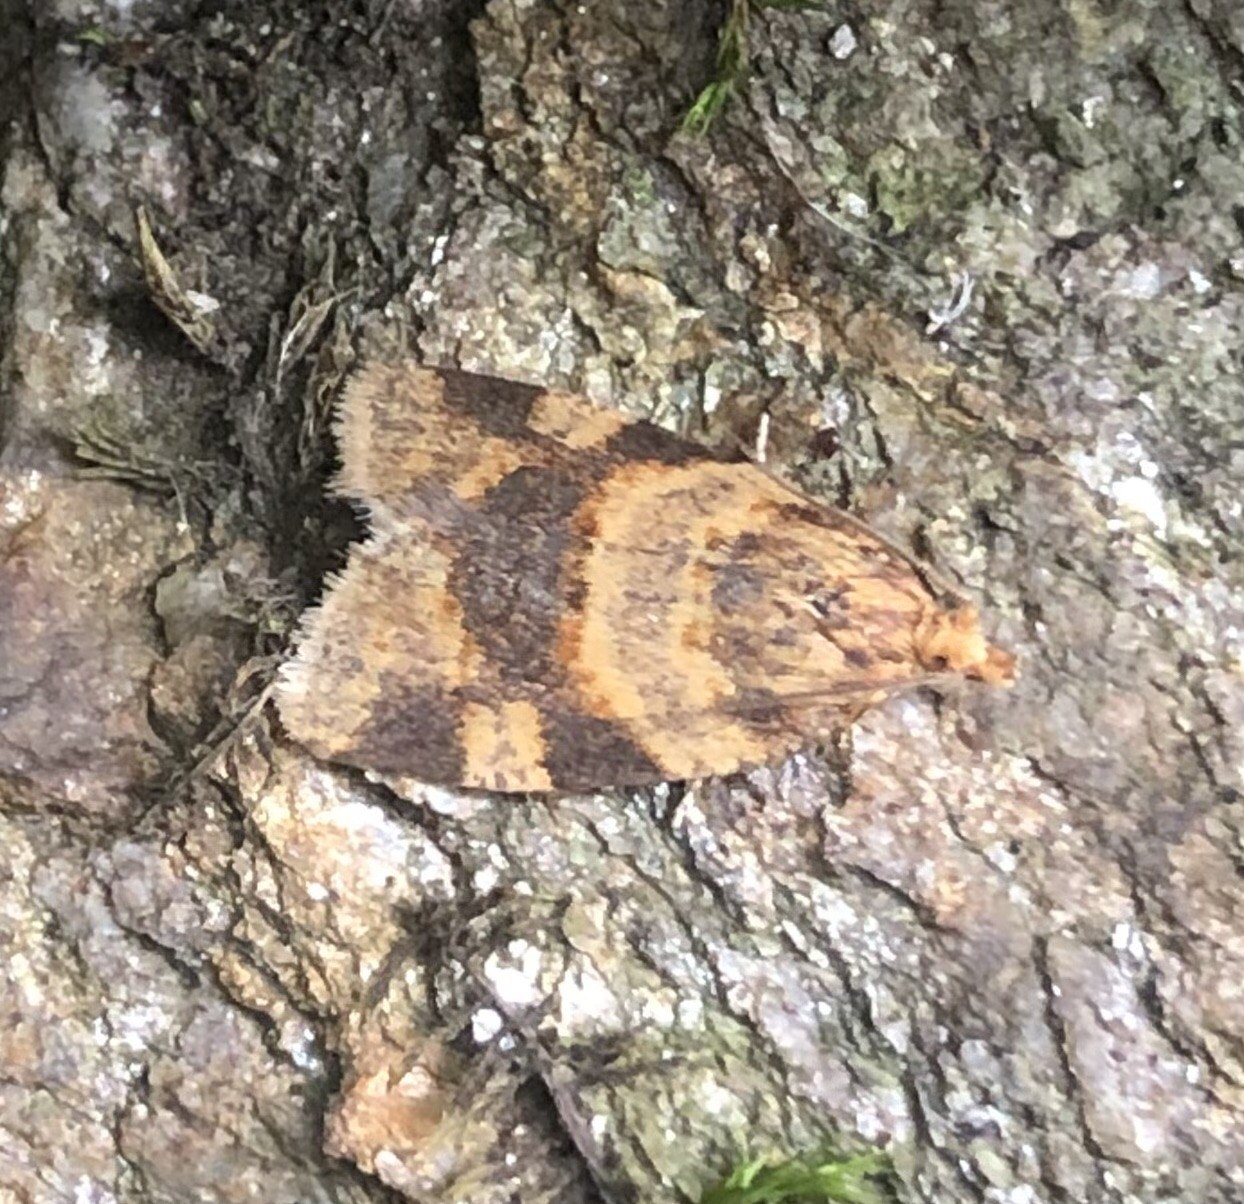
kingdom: Animalia
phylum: Arthropoda
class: Insecta
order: Lepidoptera
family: Tortricidae
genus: Epagoge
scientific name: Epagoge grotiana
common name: Brown-barred twist
